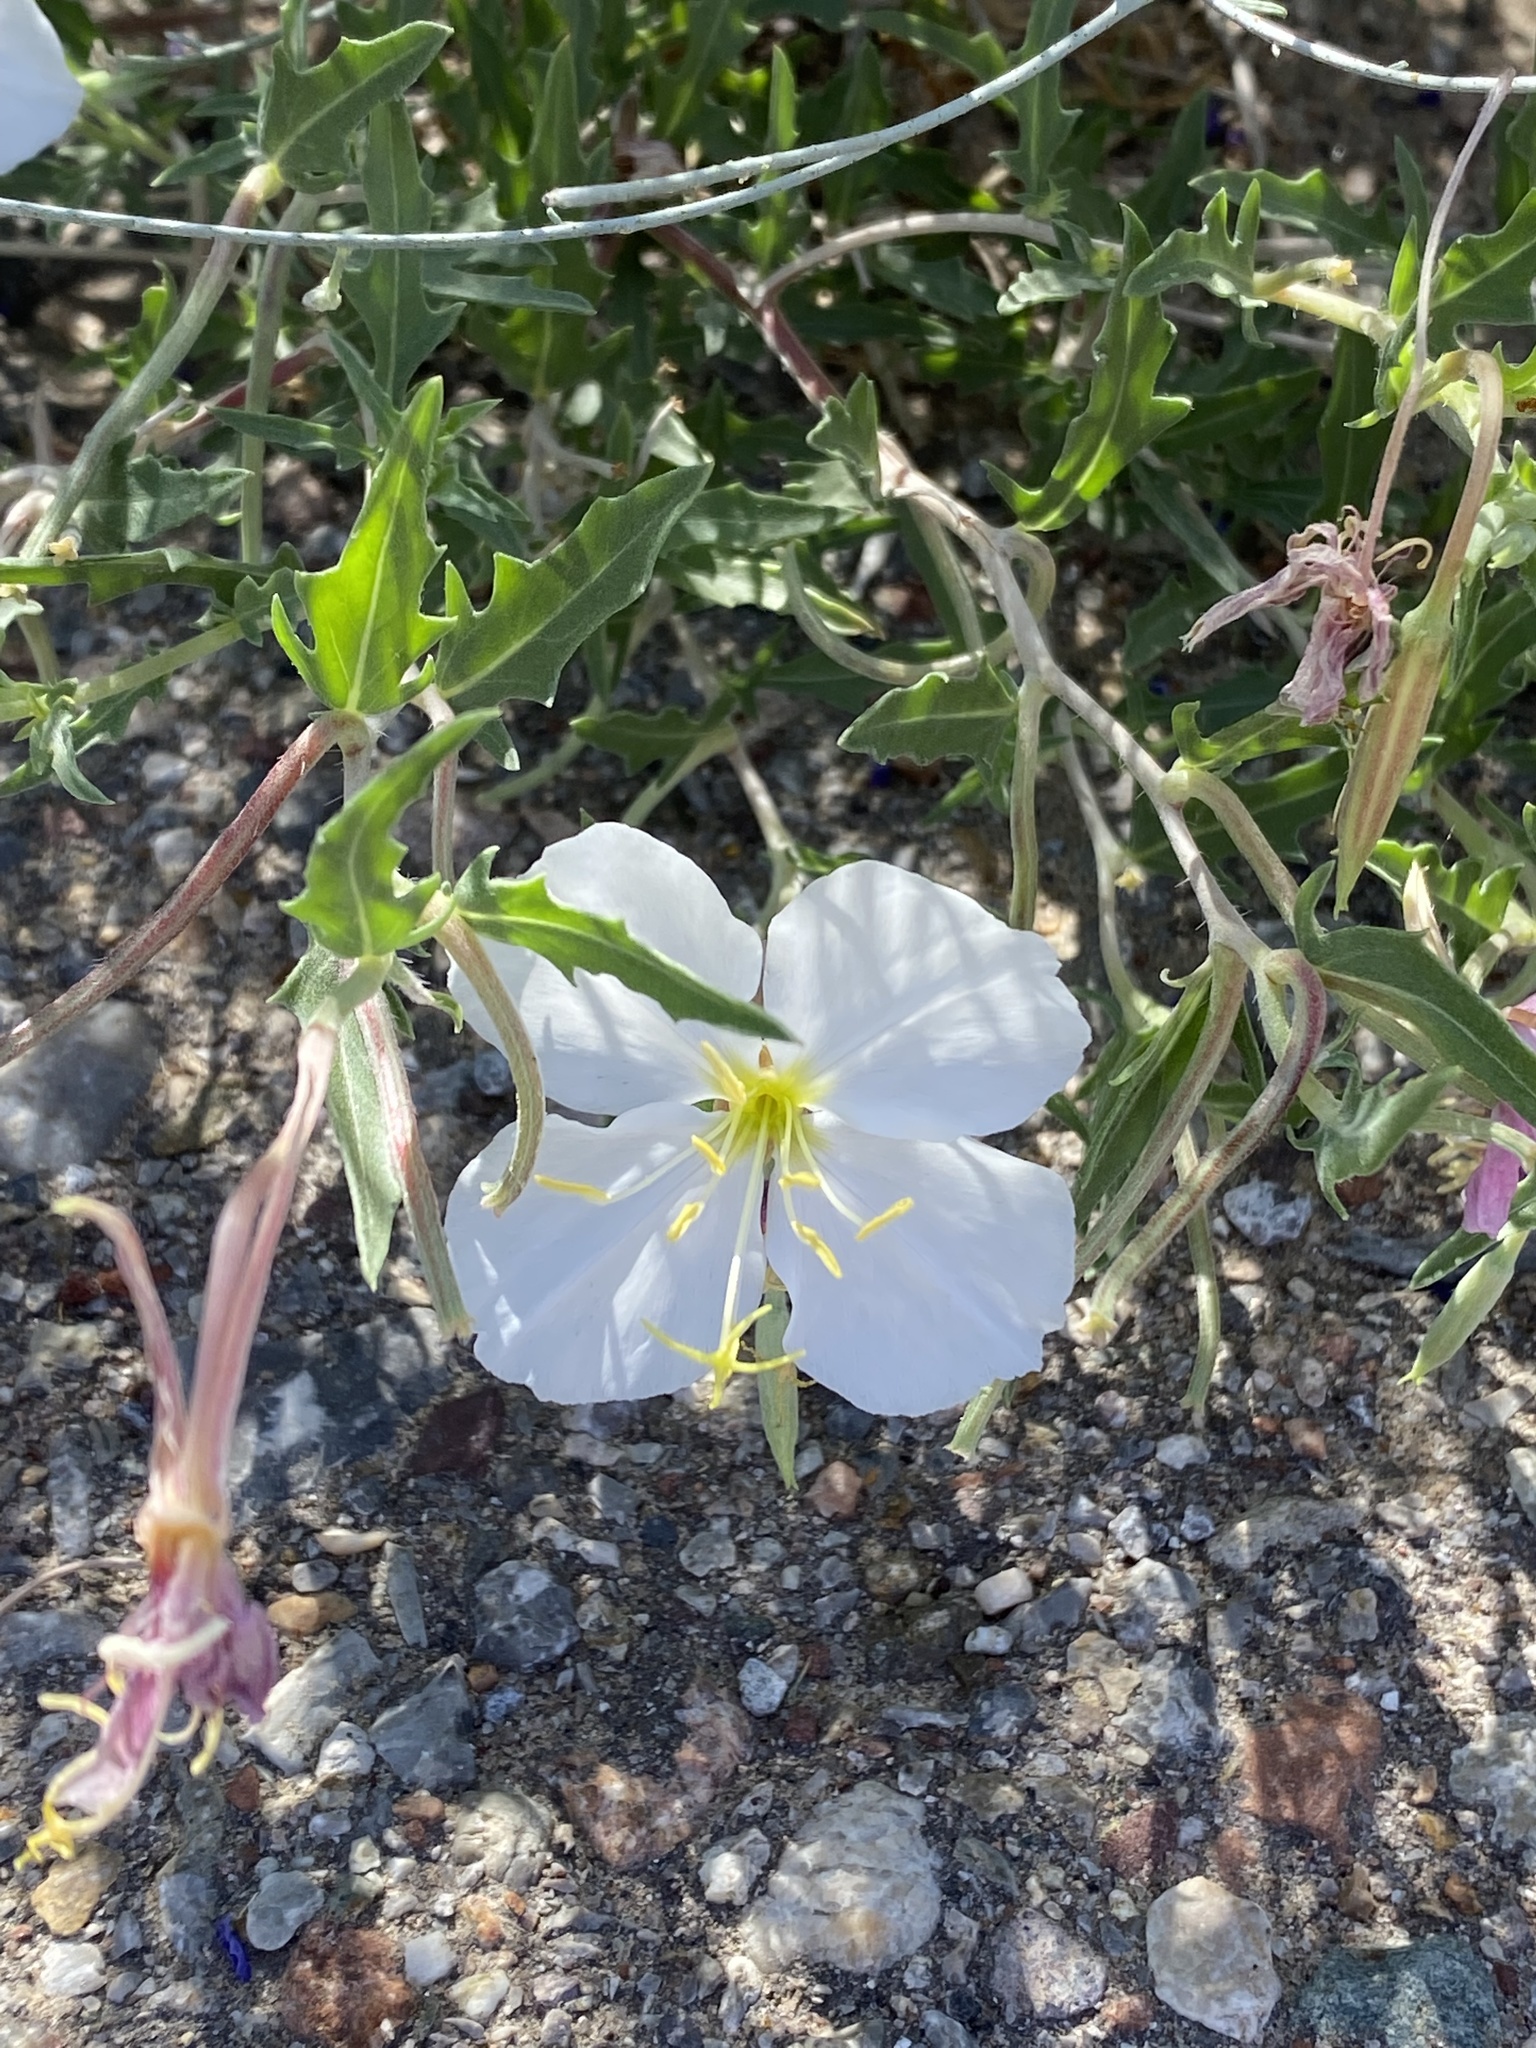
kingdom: Plantae
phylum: Tracheophyta
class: Magnoliopsida
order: Myrtales
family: Onagraceae
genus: Oenothera
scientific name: Oenothera albicaulis
